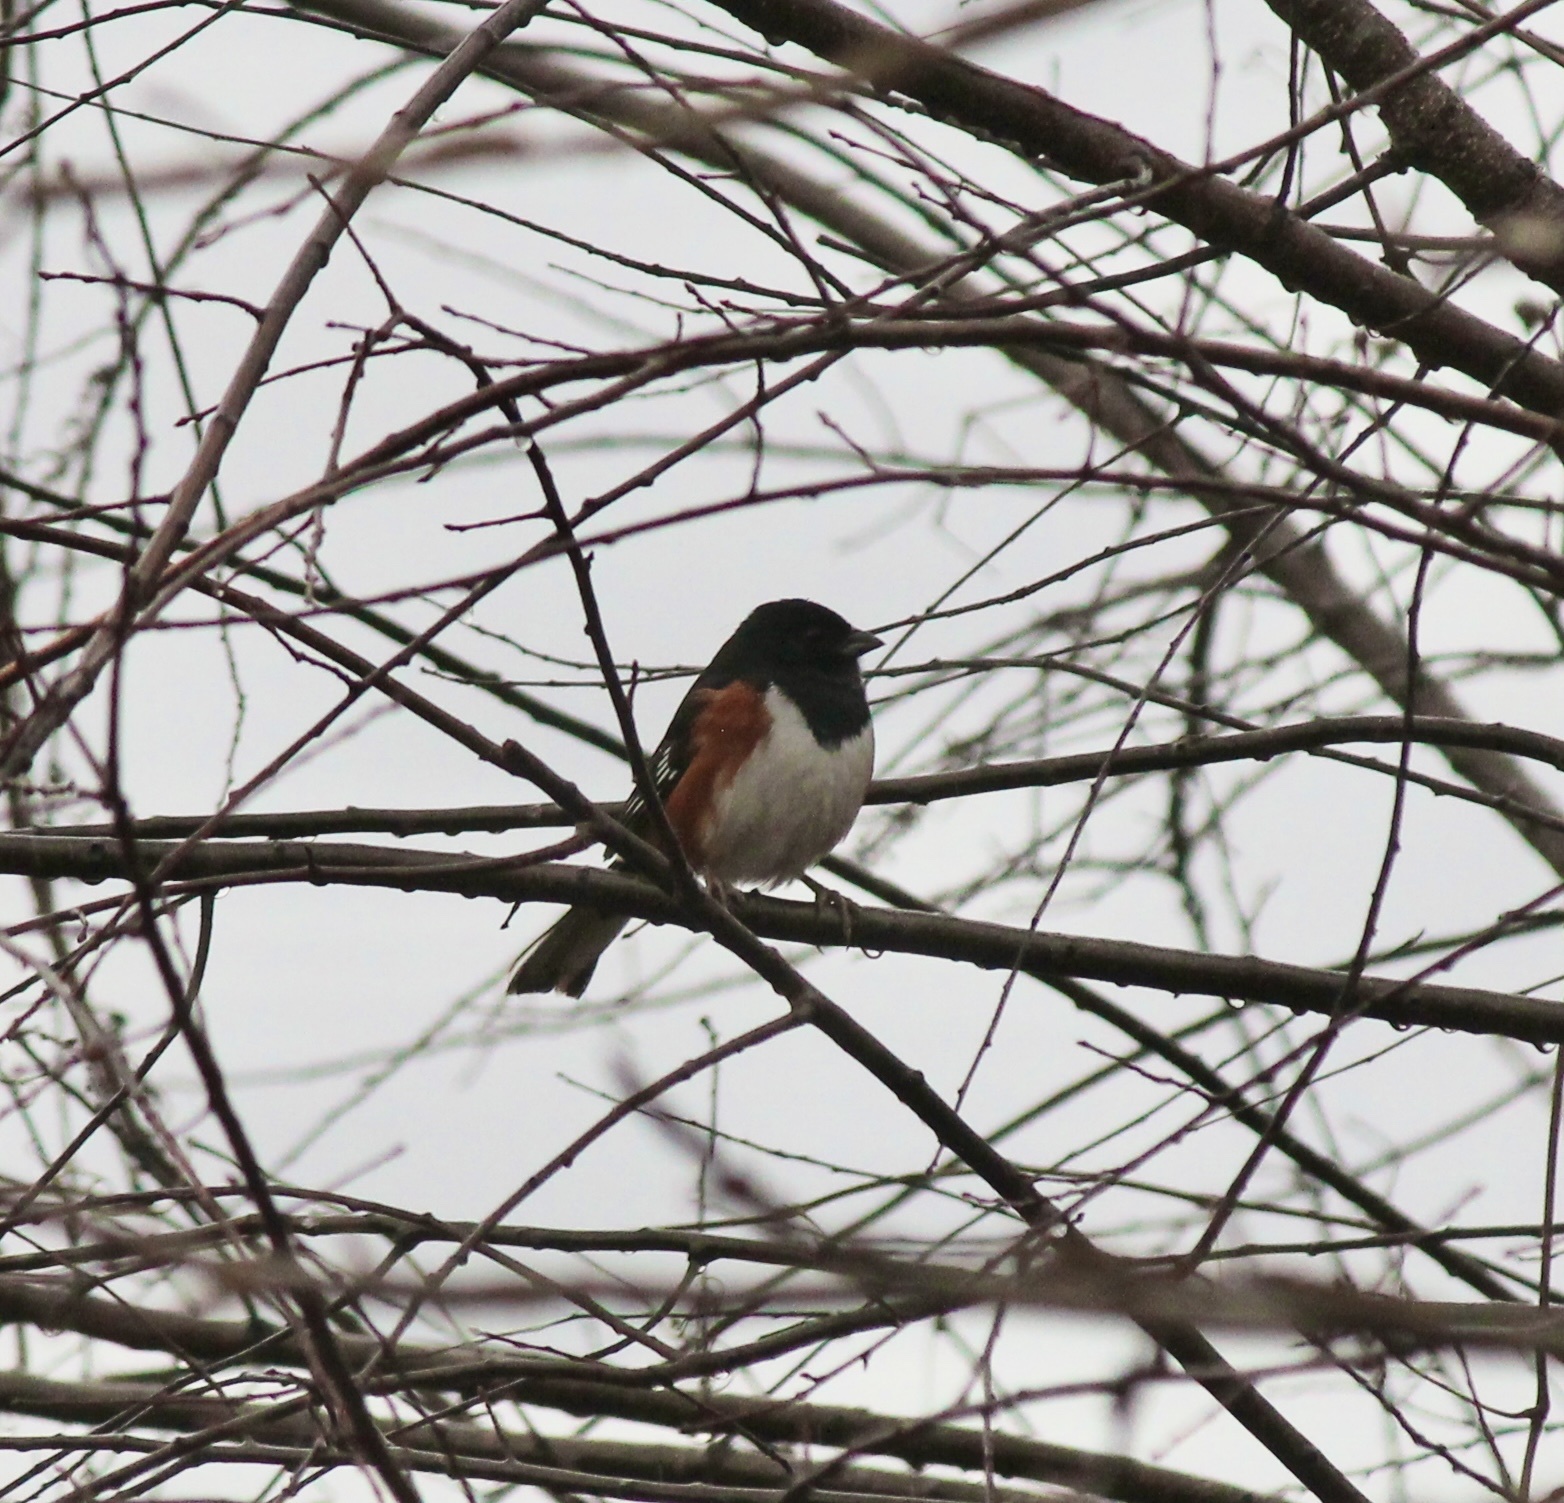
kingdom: Animalia
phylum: Chordata
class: Aves
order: Passeriformes
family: Passerellidae
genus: Pipilo
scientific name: Pipilo erythrophthalmus
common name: Eastern towhee
